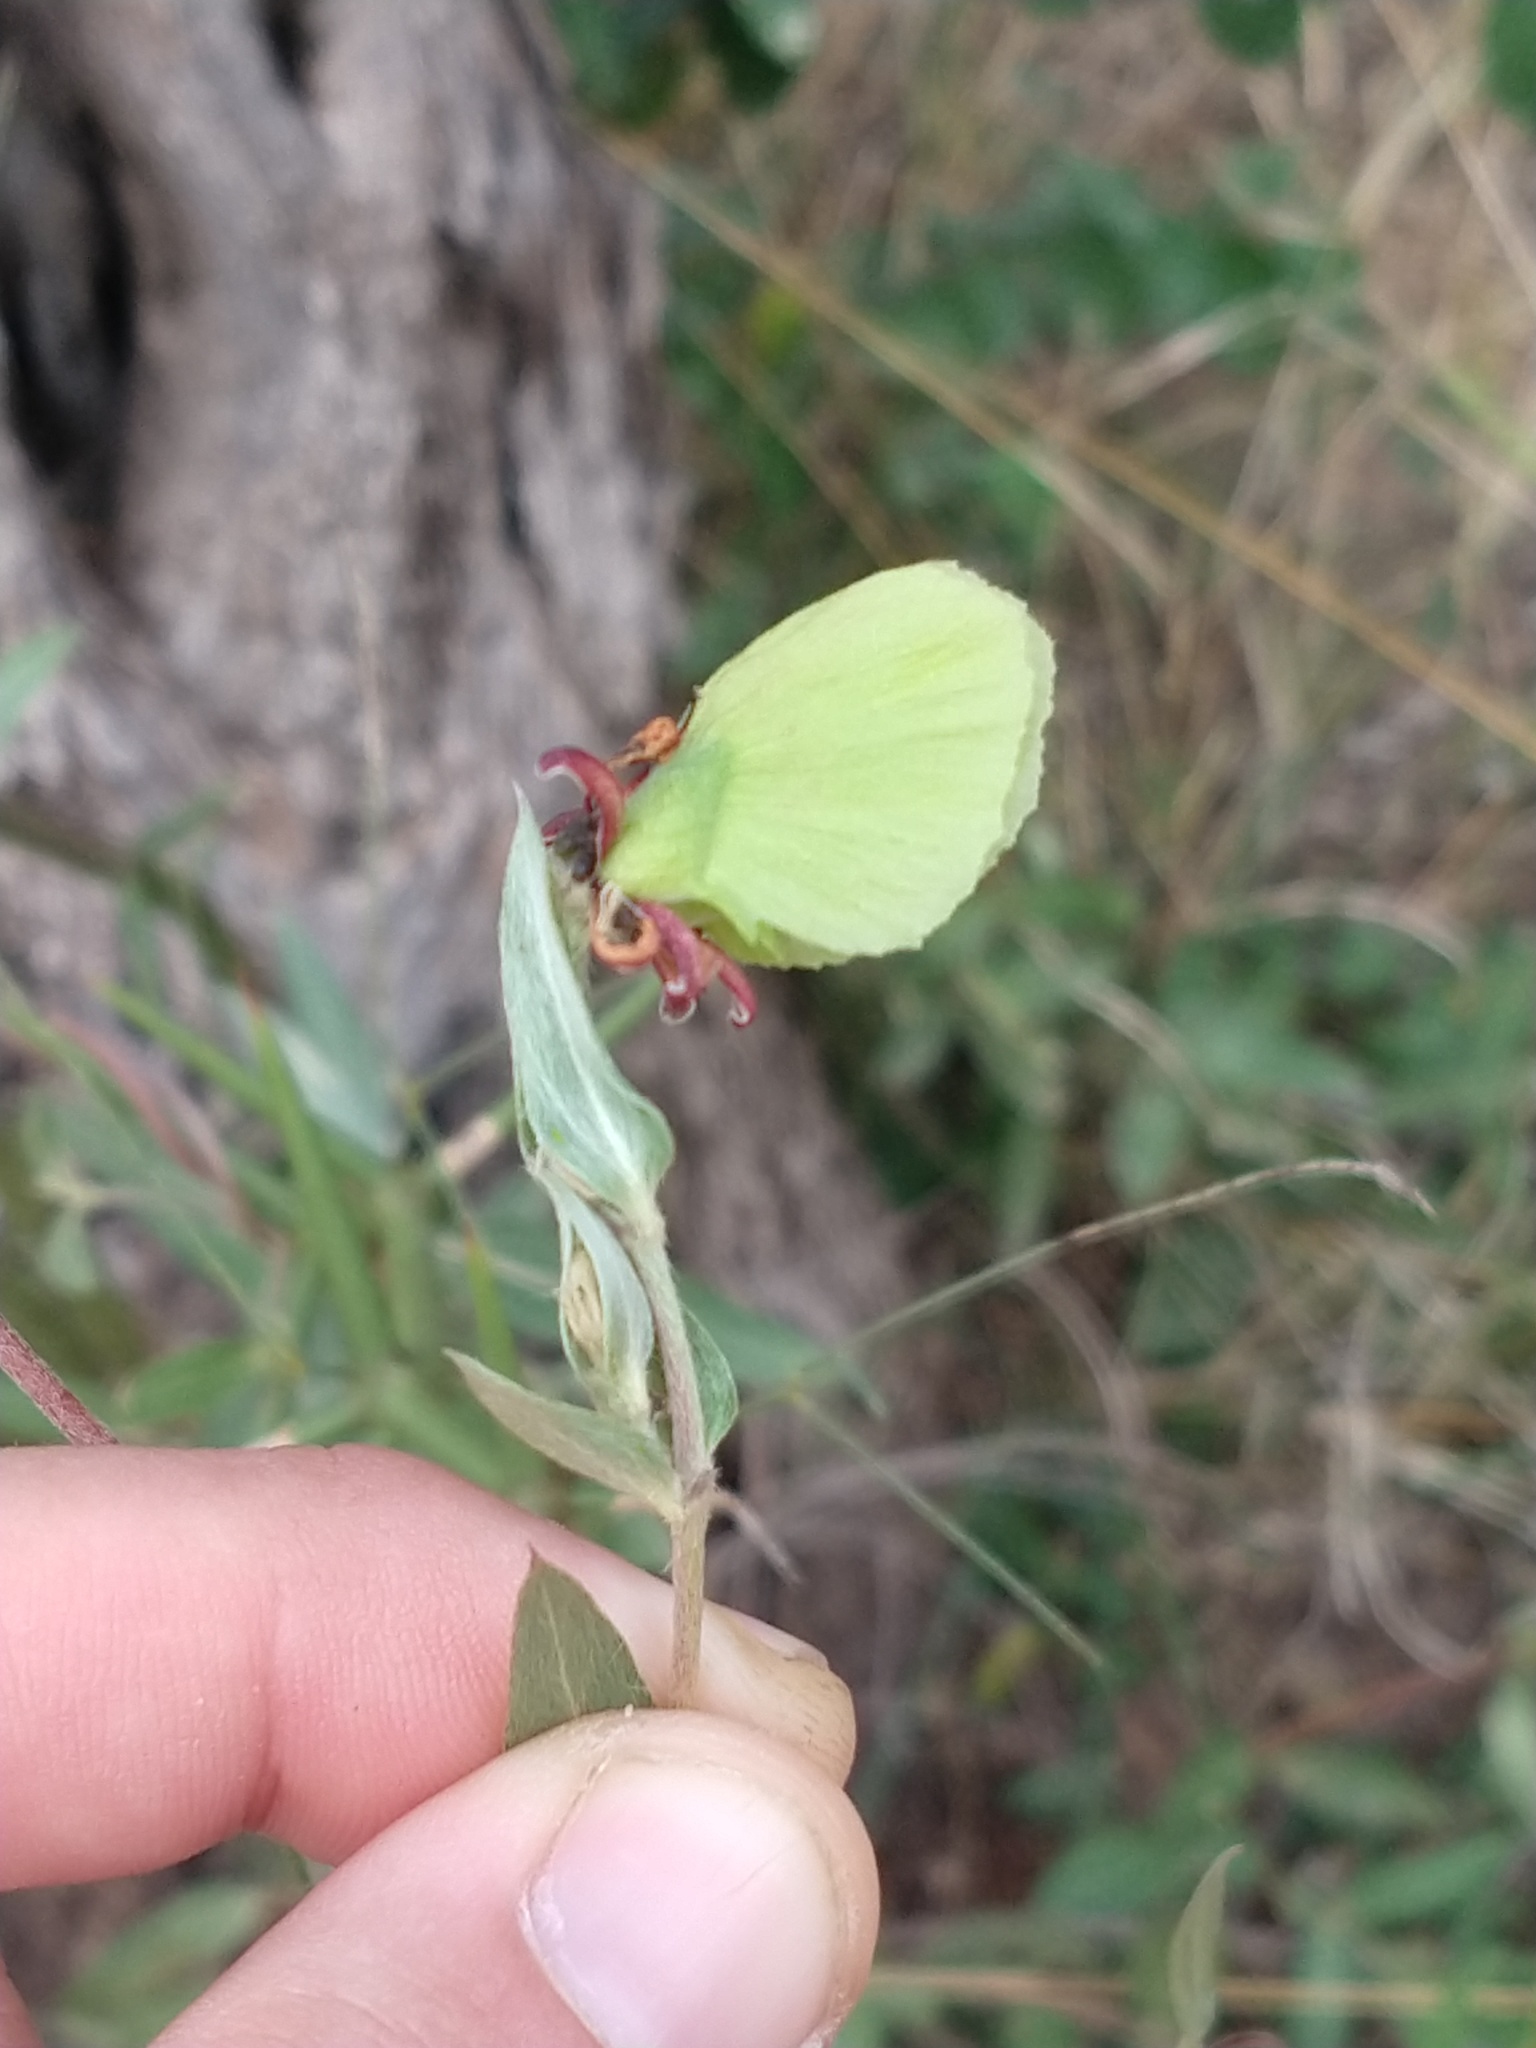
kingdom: Plantae
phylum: Tracheophyta
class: Magnoliopsida
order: Malpighiales
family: Malpighiaceae
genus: Cordobia
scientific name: Cordobia argentea
